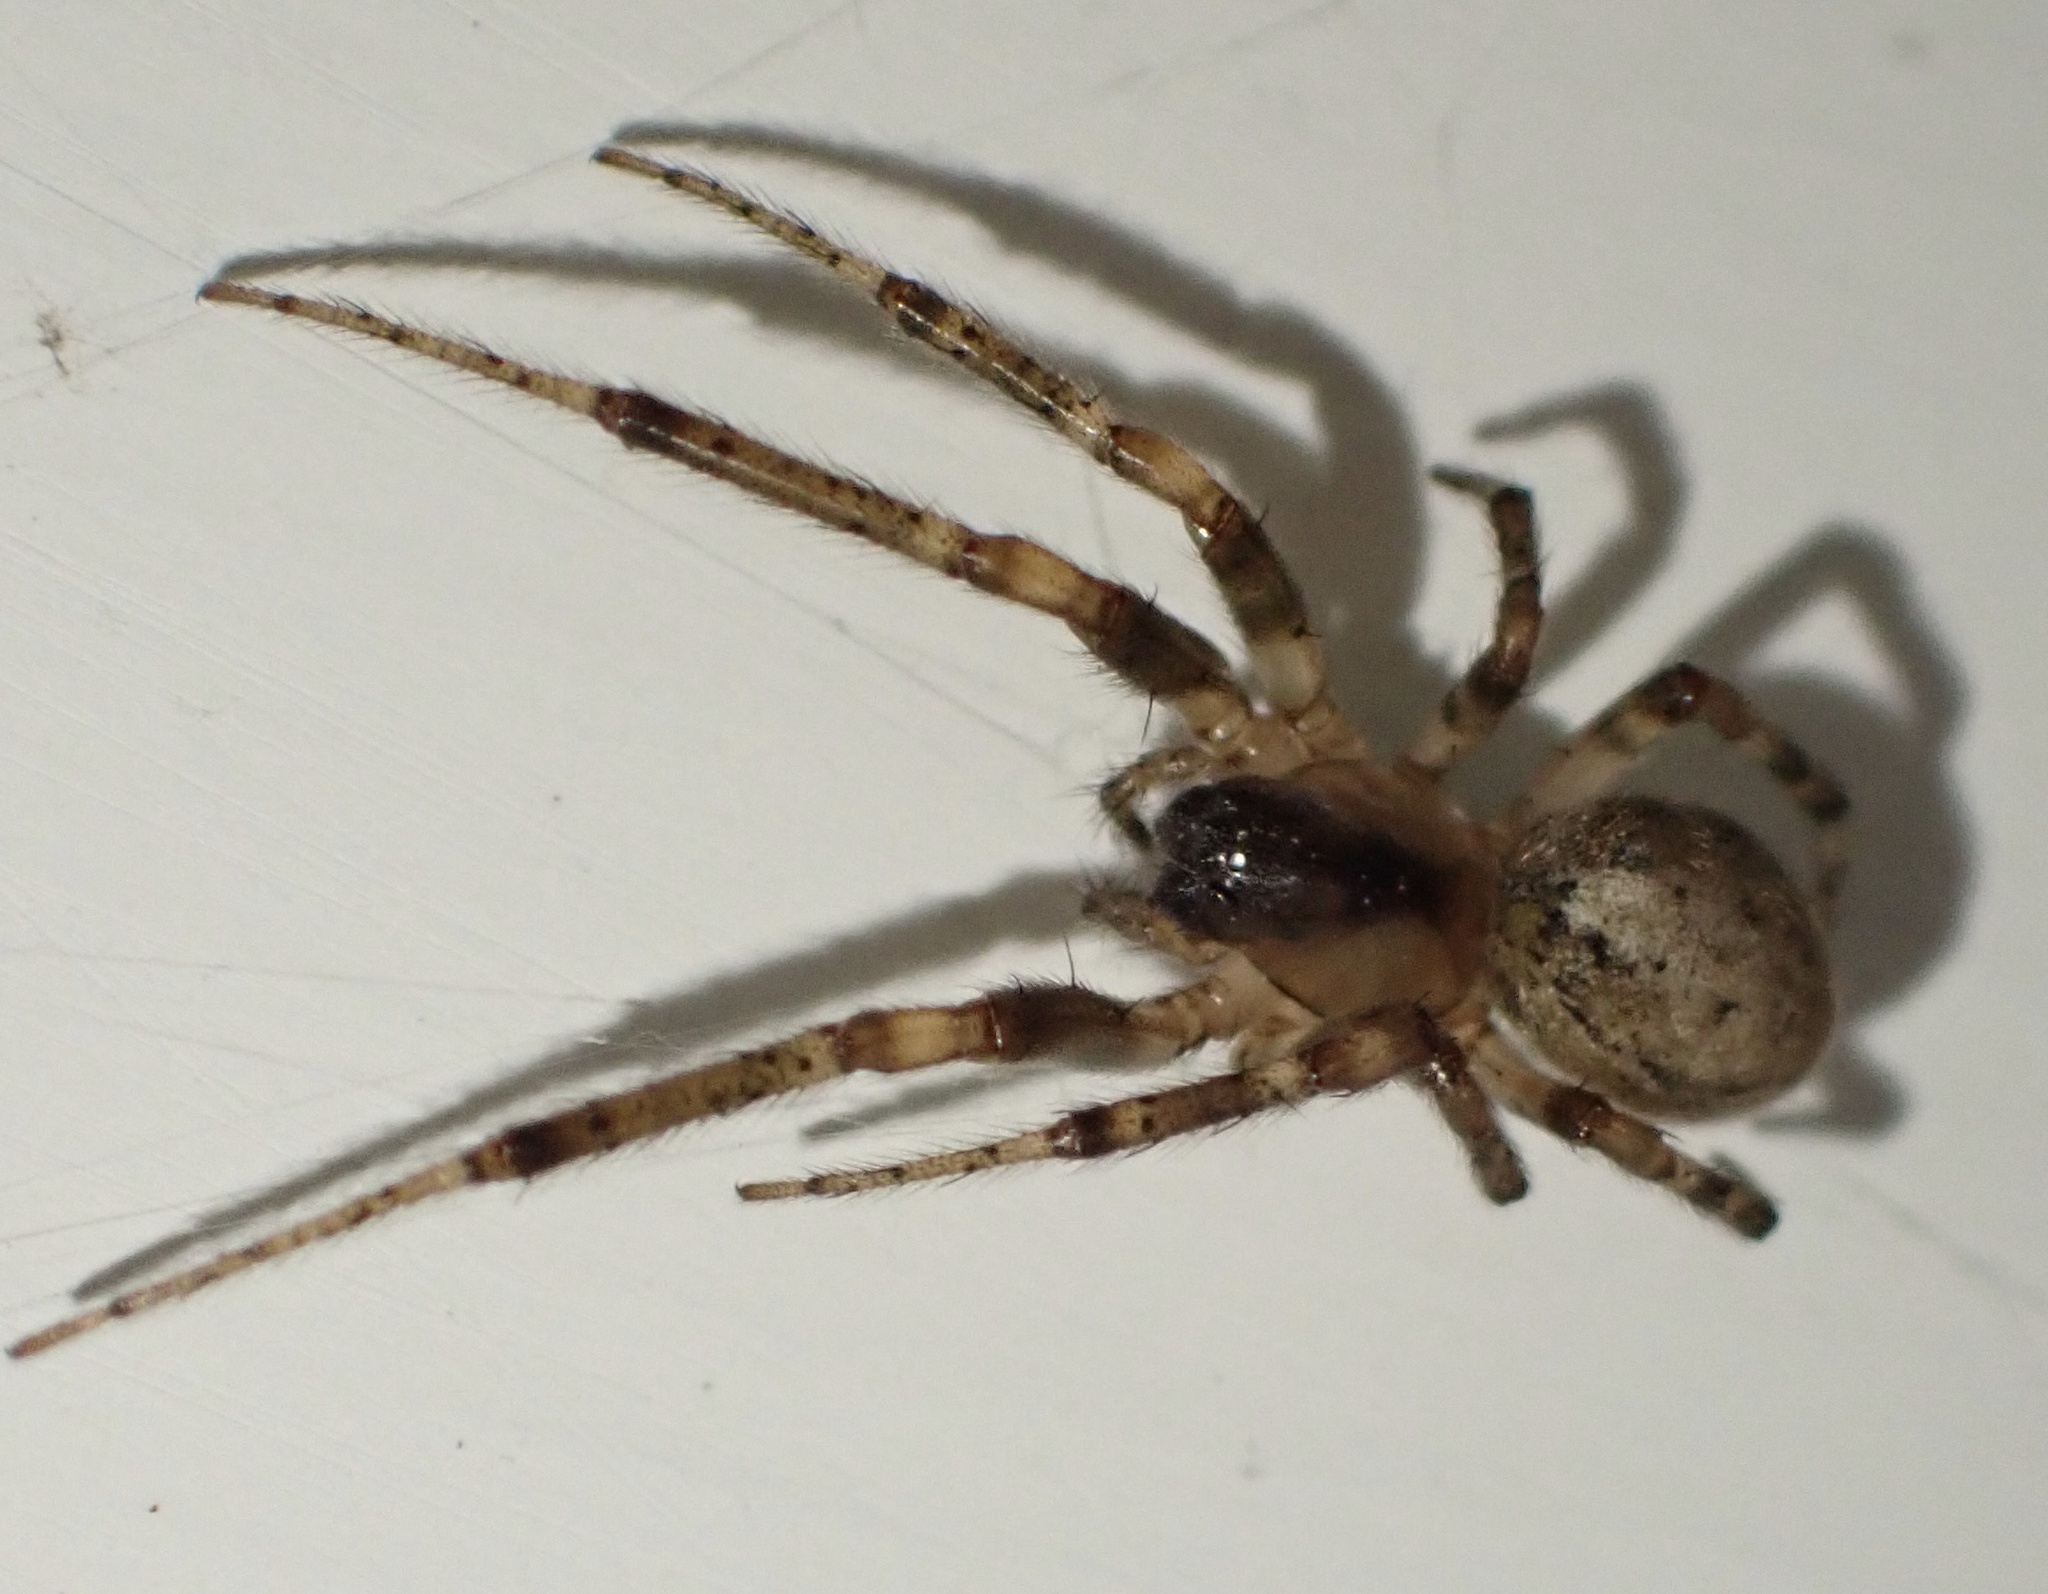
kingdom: Animalia
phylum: Arthropoda
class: Arachnida
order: Araneae
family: Araneidae
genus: Zygiella
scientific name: Zygiella x-notata
